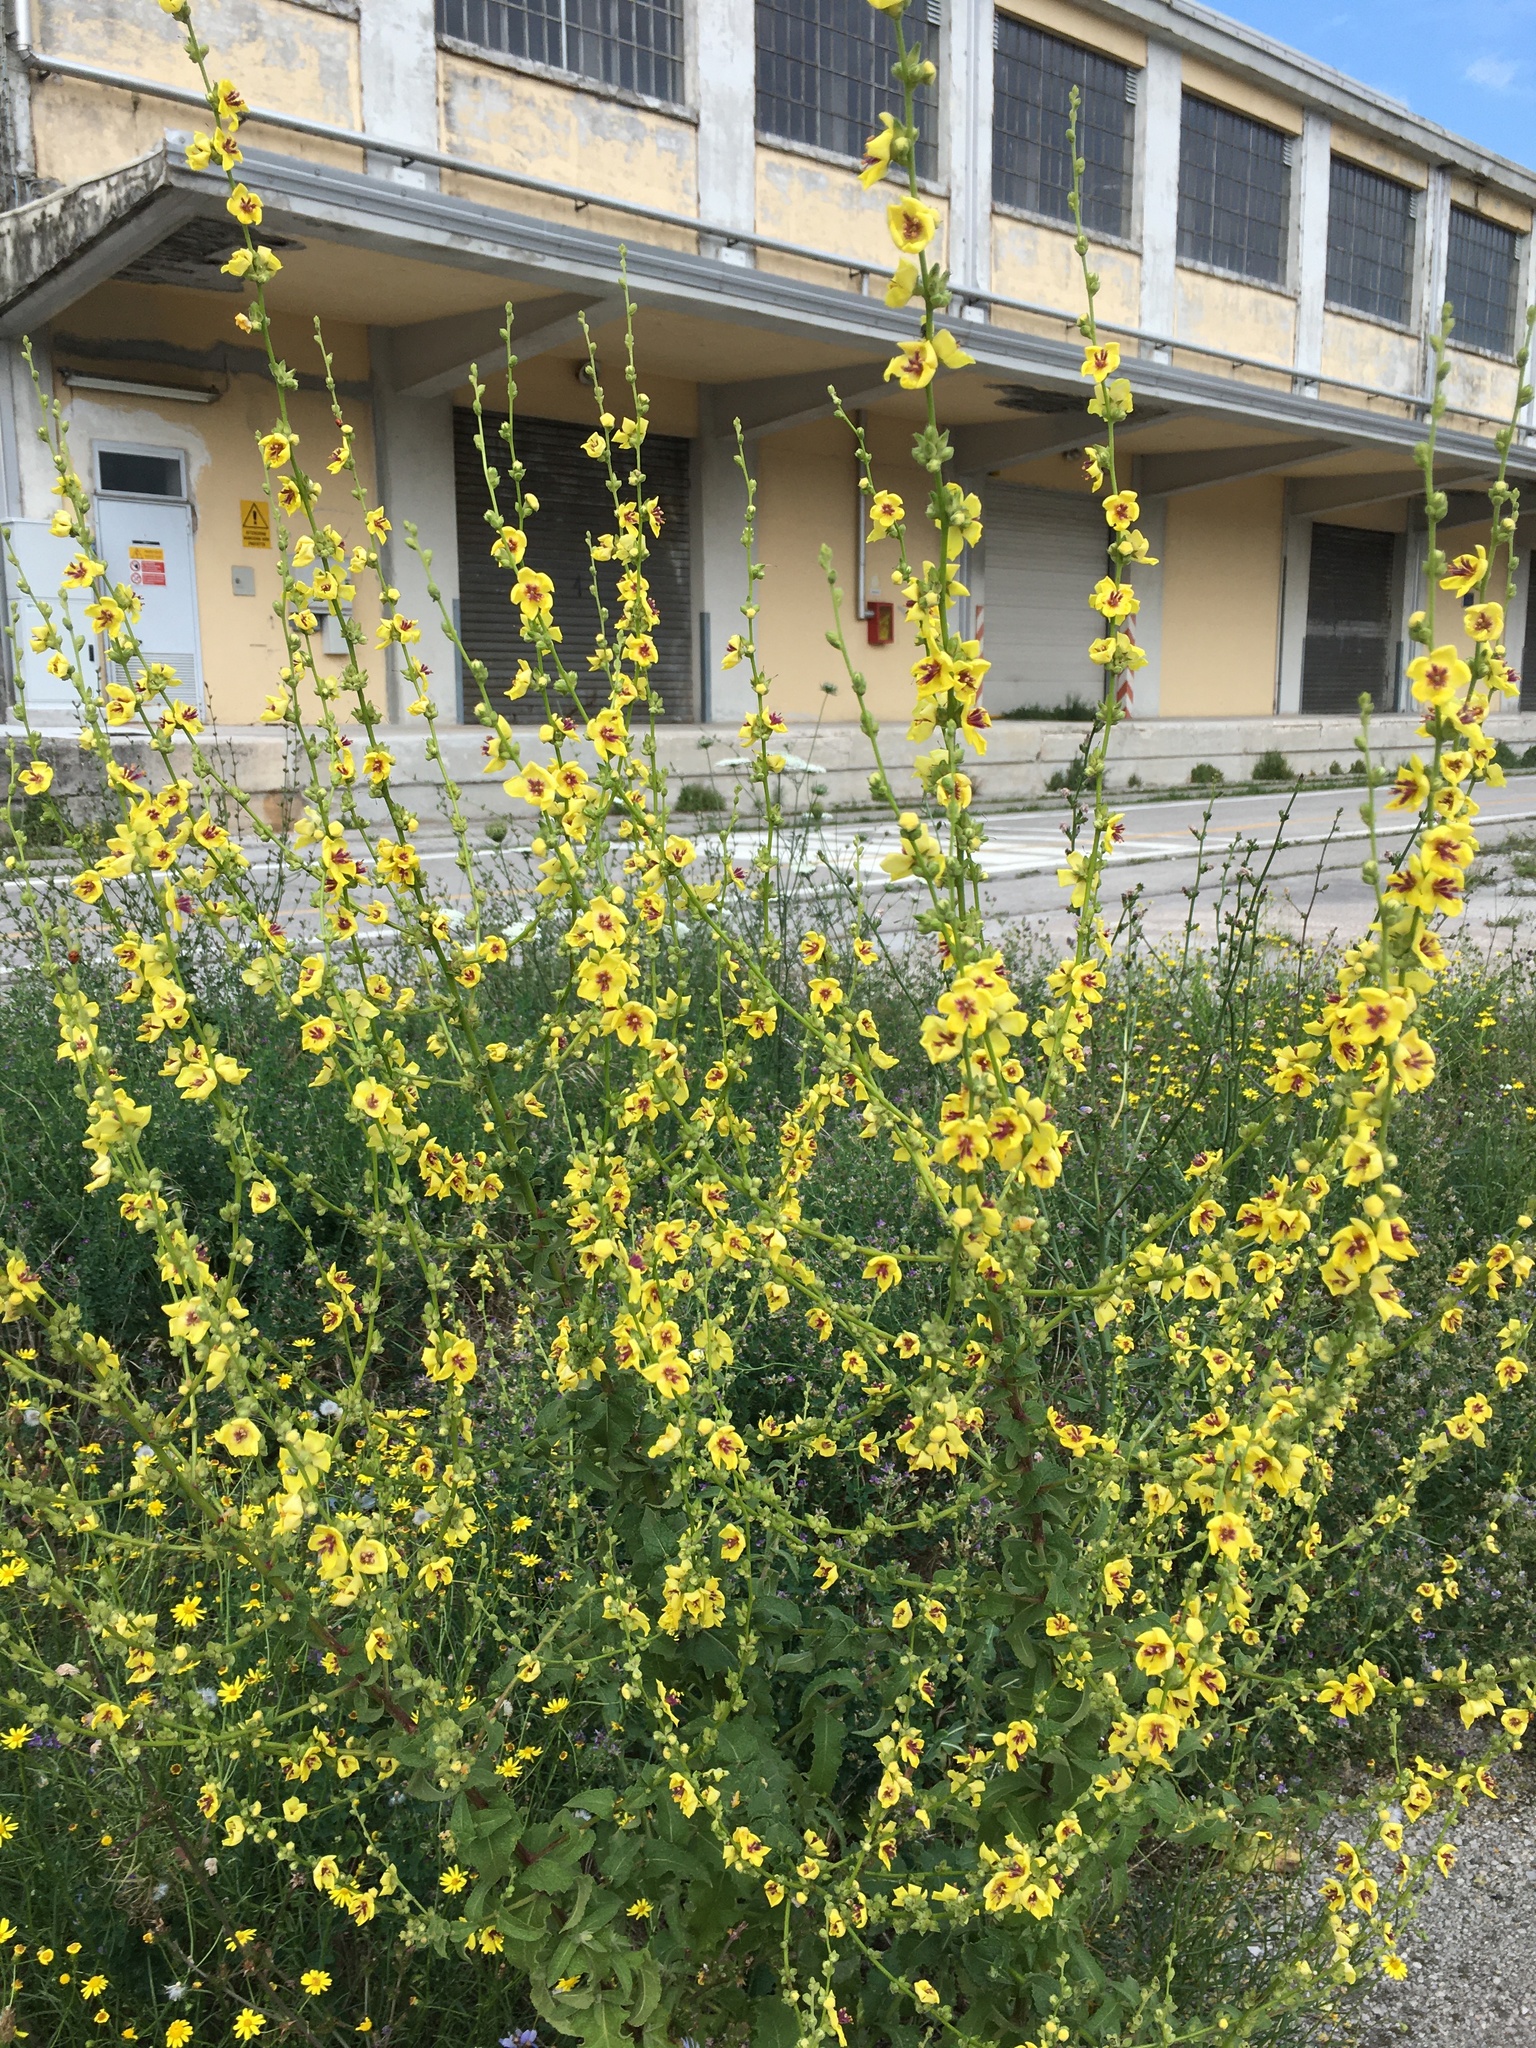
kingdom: Plantae
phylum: Tracheophyta
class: Magnoliopsida
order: Lamiales
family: Scrophulariaceae
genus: Verbascum
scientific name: Verbascum sinuatum
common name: Wavyleaf mullein
